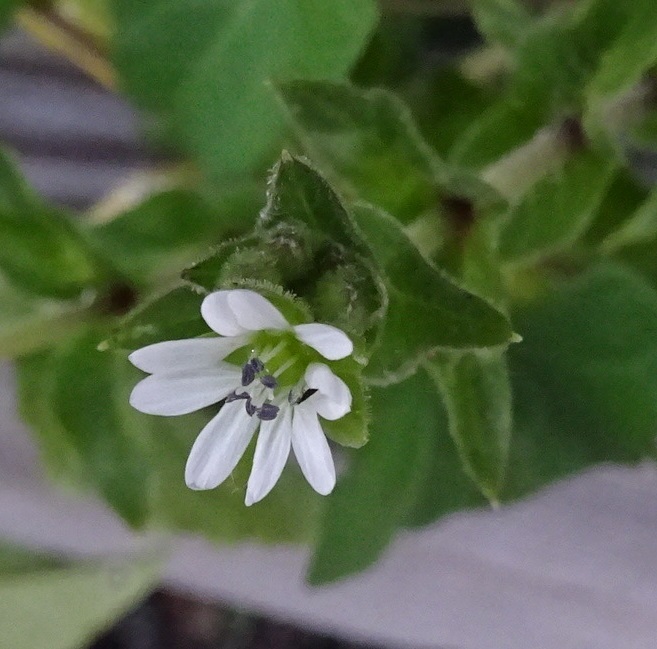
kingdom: Plantae
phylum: Tracheophyta
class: Magnoliopsida
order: Caryophyllales
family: Caryophyllaceae
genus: Stellaria
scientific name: Stellaria aquatica
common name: Water chickweed
